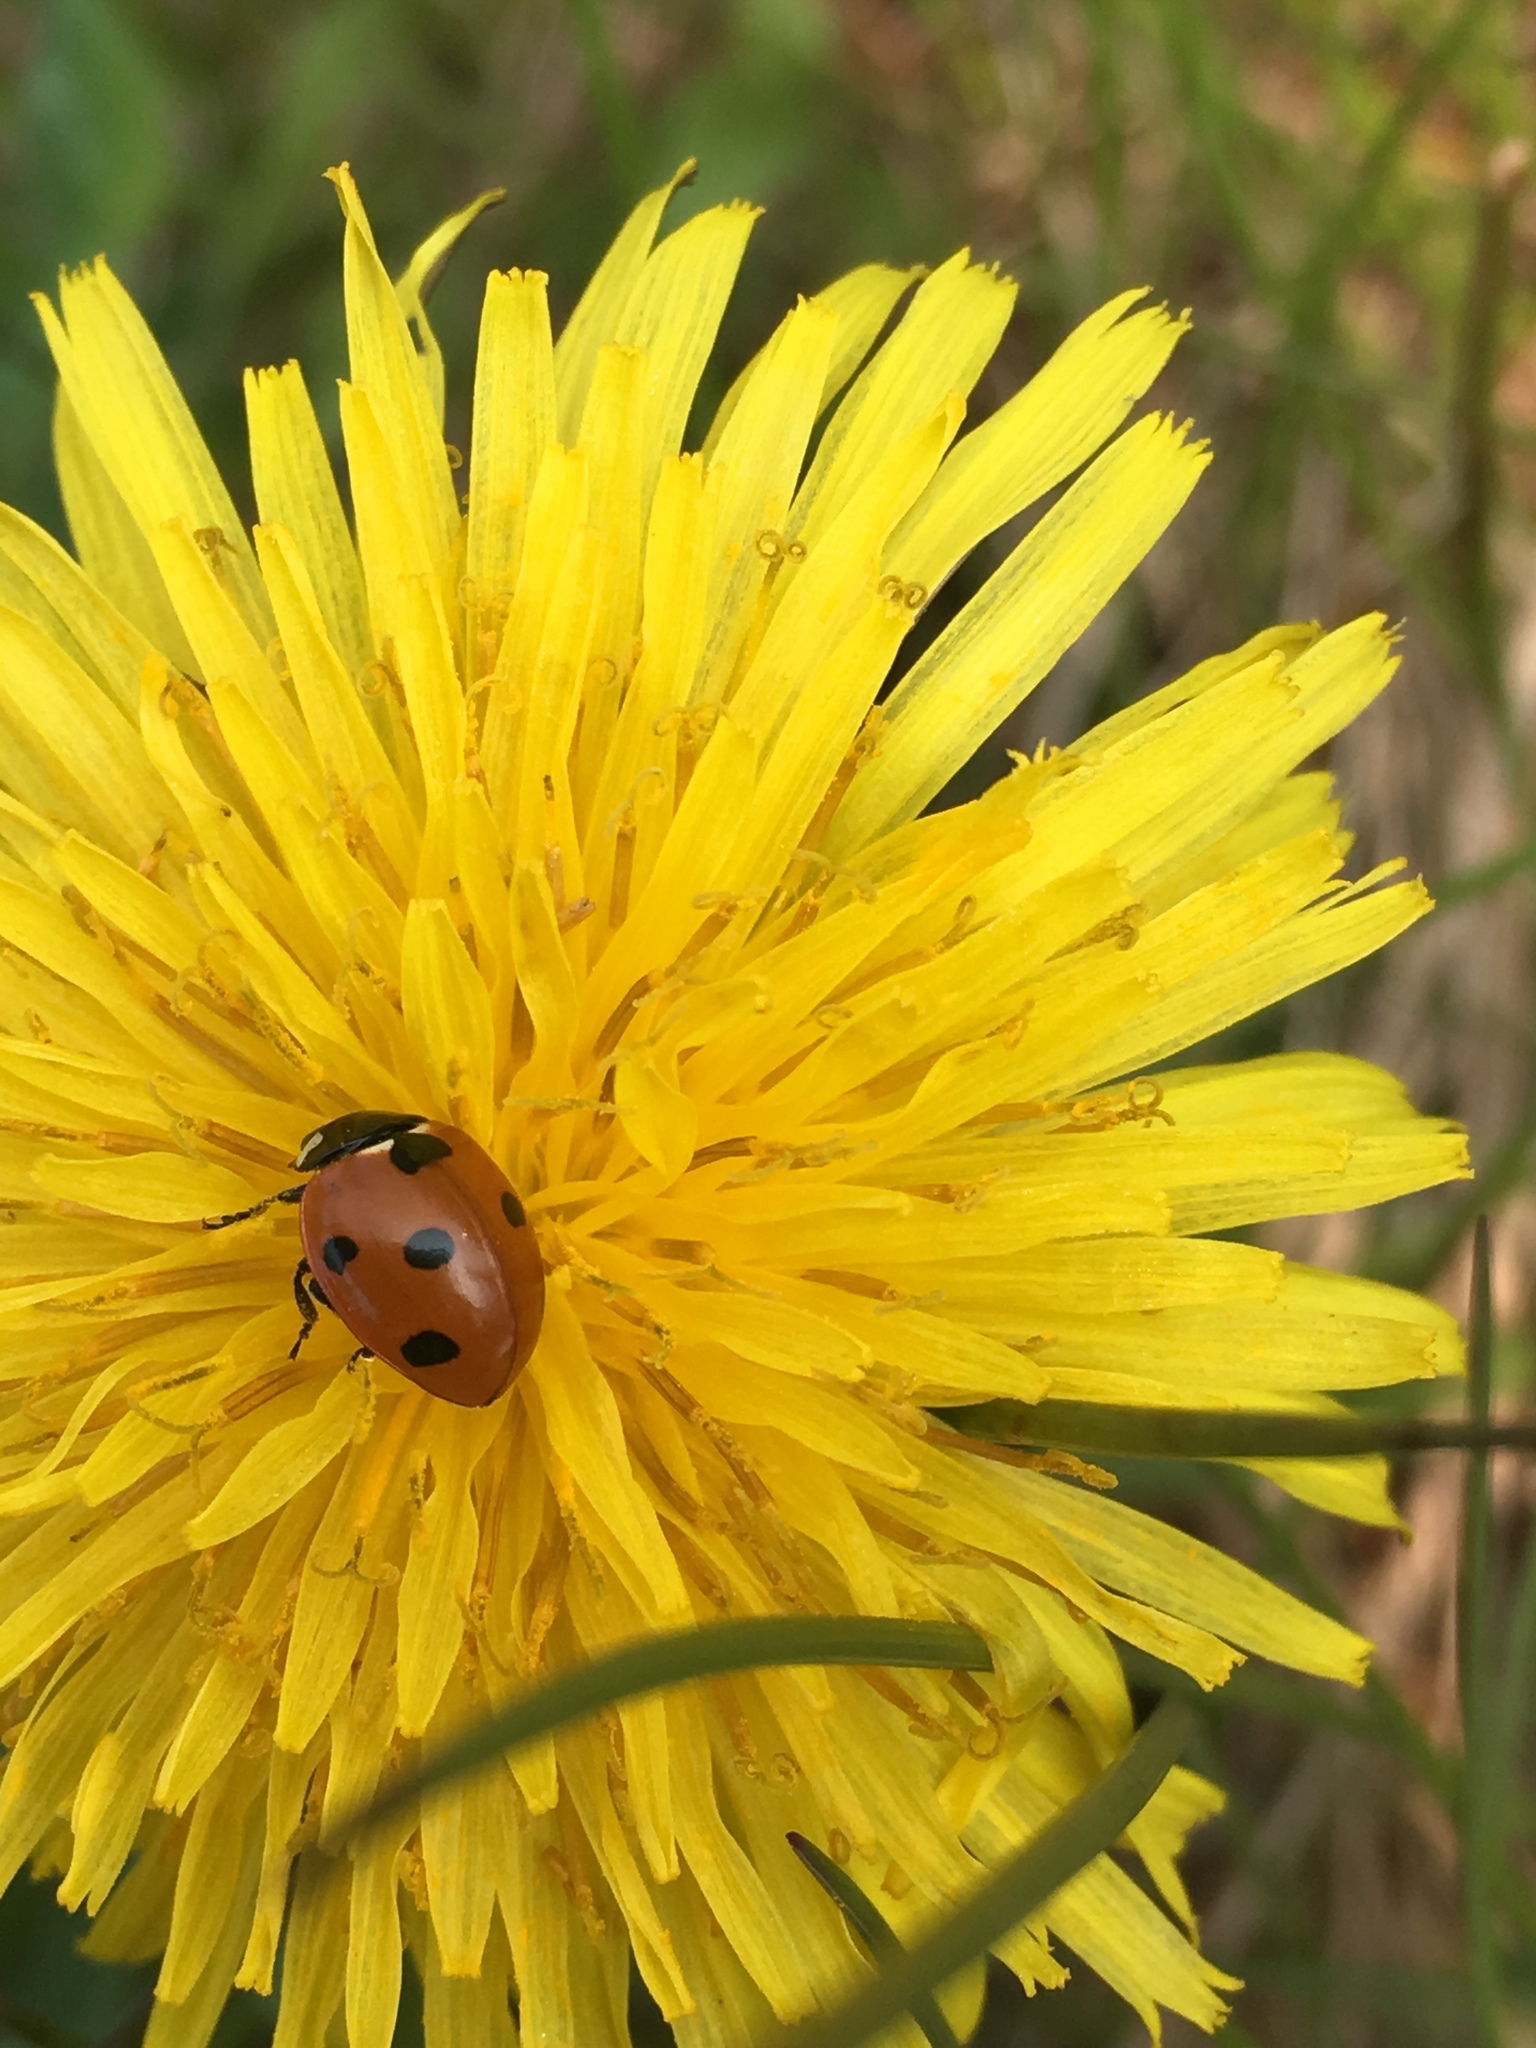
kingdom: Animalia
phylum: Arthropoda
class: Insecta
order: Coleoptera
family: Coccinellidae
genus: Coccinella
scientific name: Coccinella septempunctata
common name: Sevenspotted lady beetle
